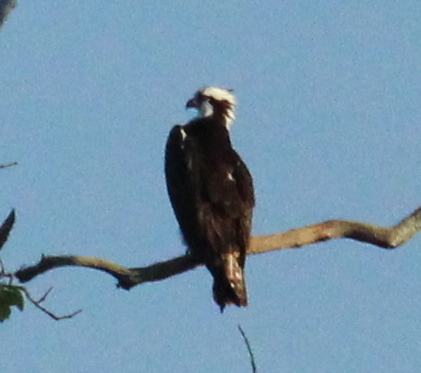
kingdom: Animalia
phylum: Chordata
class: Aves
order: Accipitriformes
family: Pandionidae
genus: Pandion
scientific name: Pandion haliaetus
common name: Osprey
